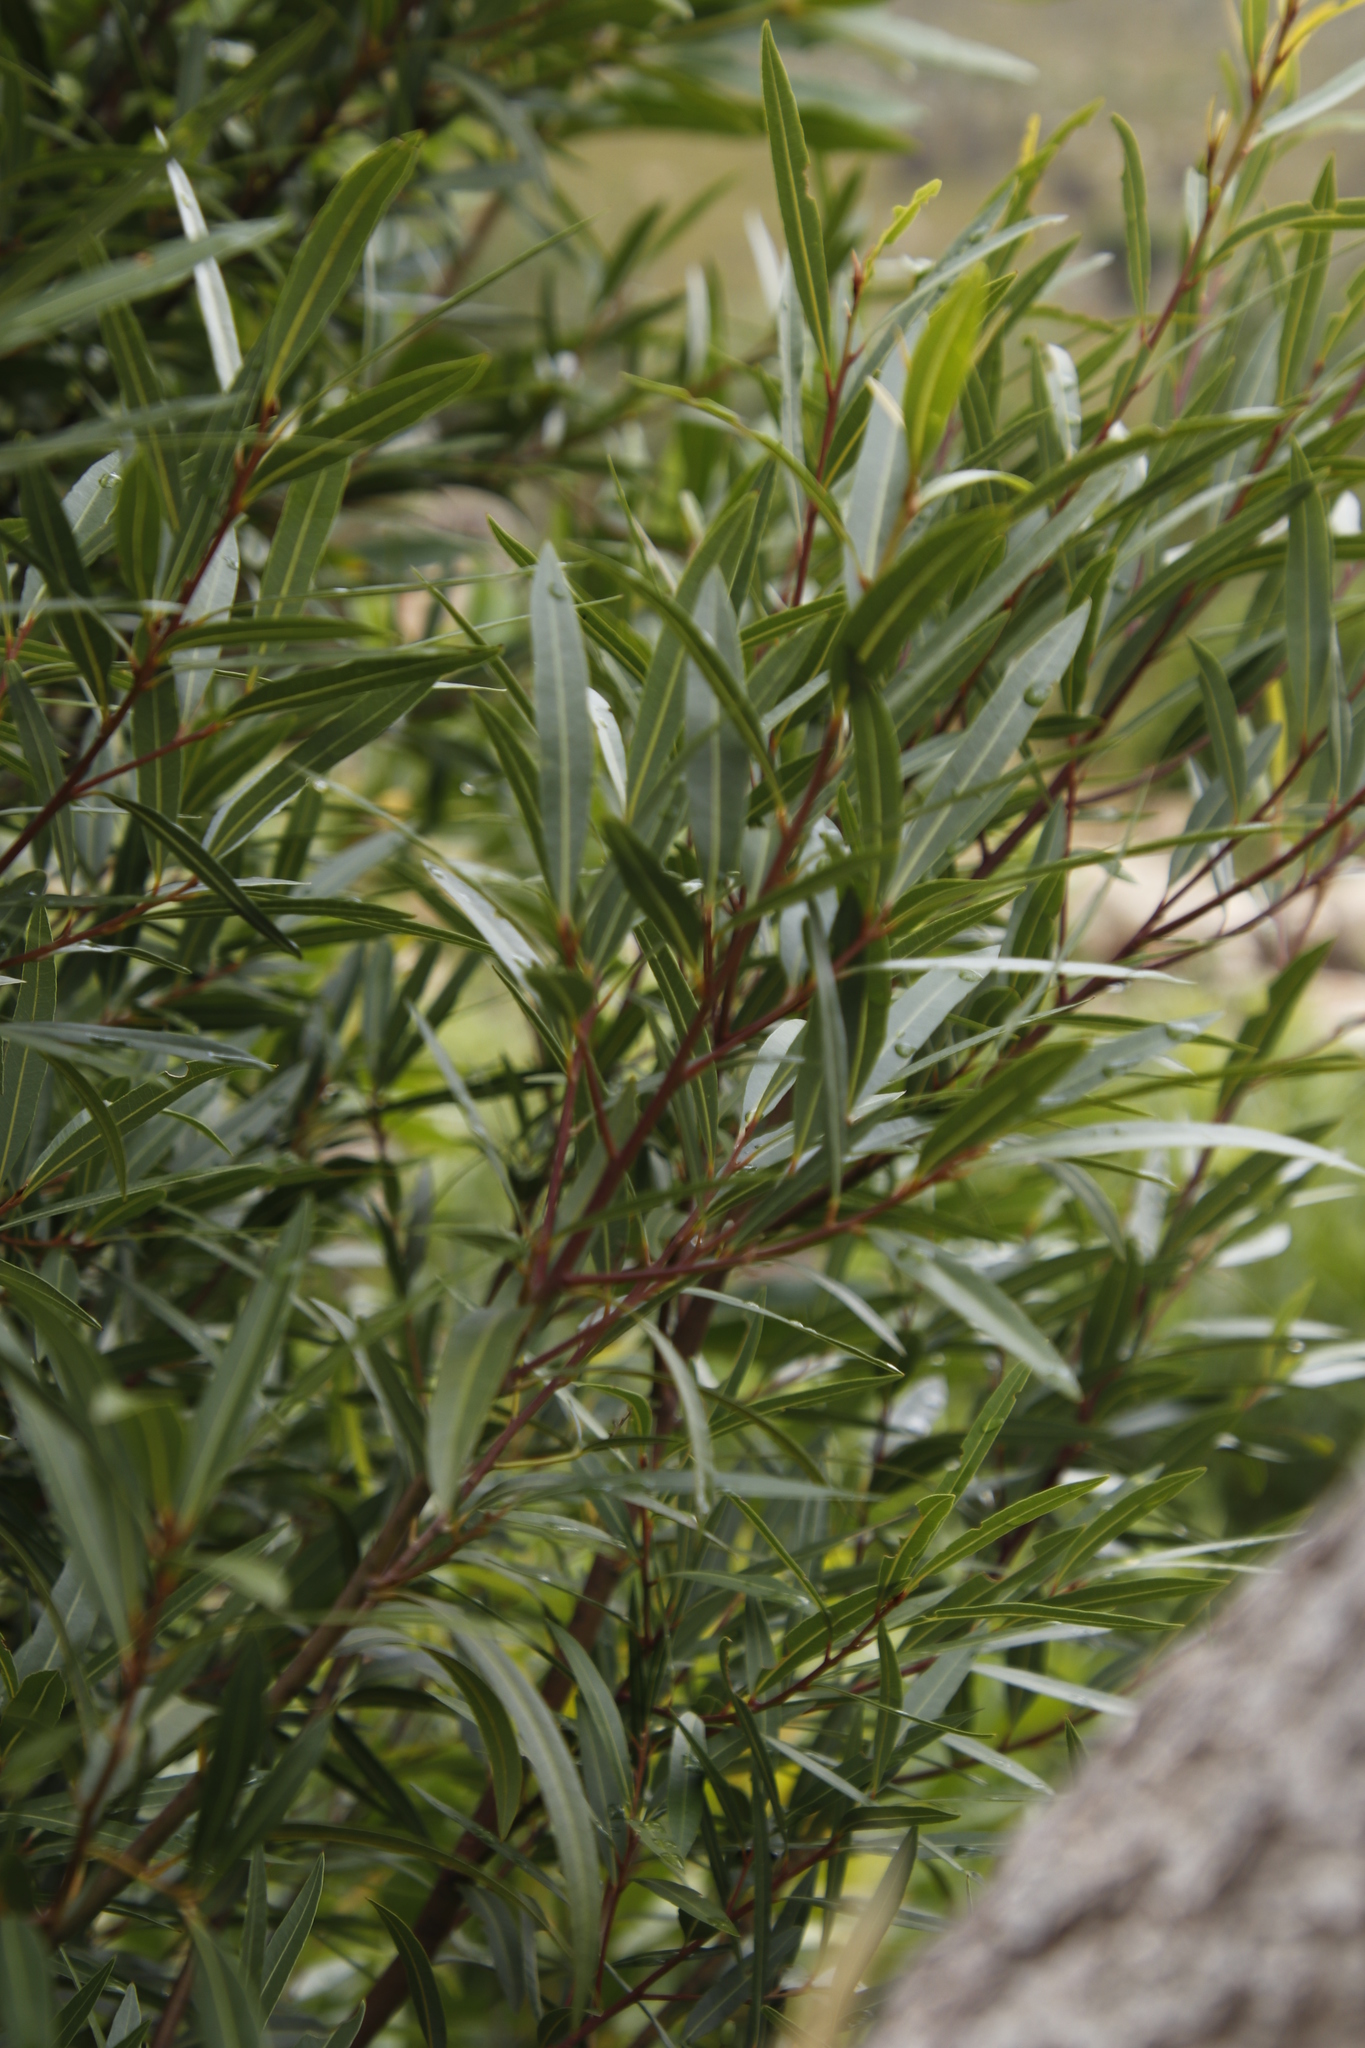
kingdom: Plantae
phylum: Tracheophyta
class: Magnoliopsida
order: Laurales
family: Lauraceae
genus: Cryptocarya
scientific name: Cryptocarya angustifolia
